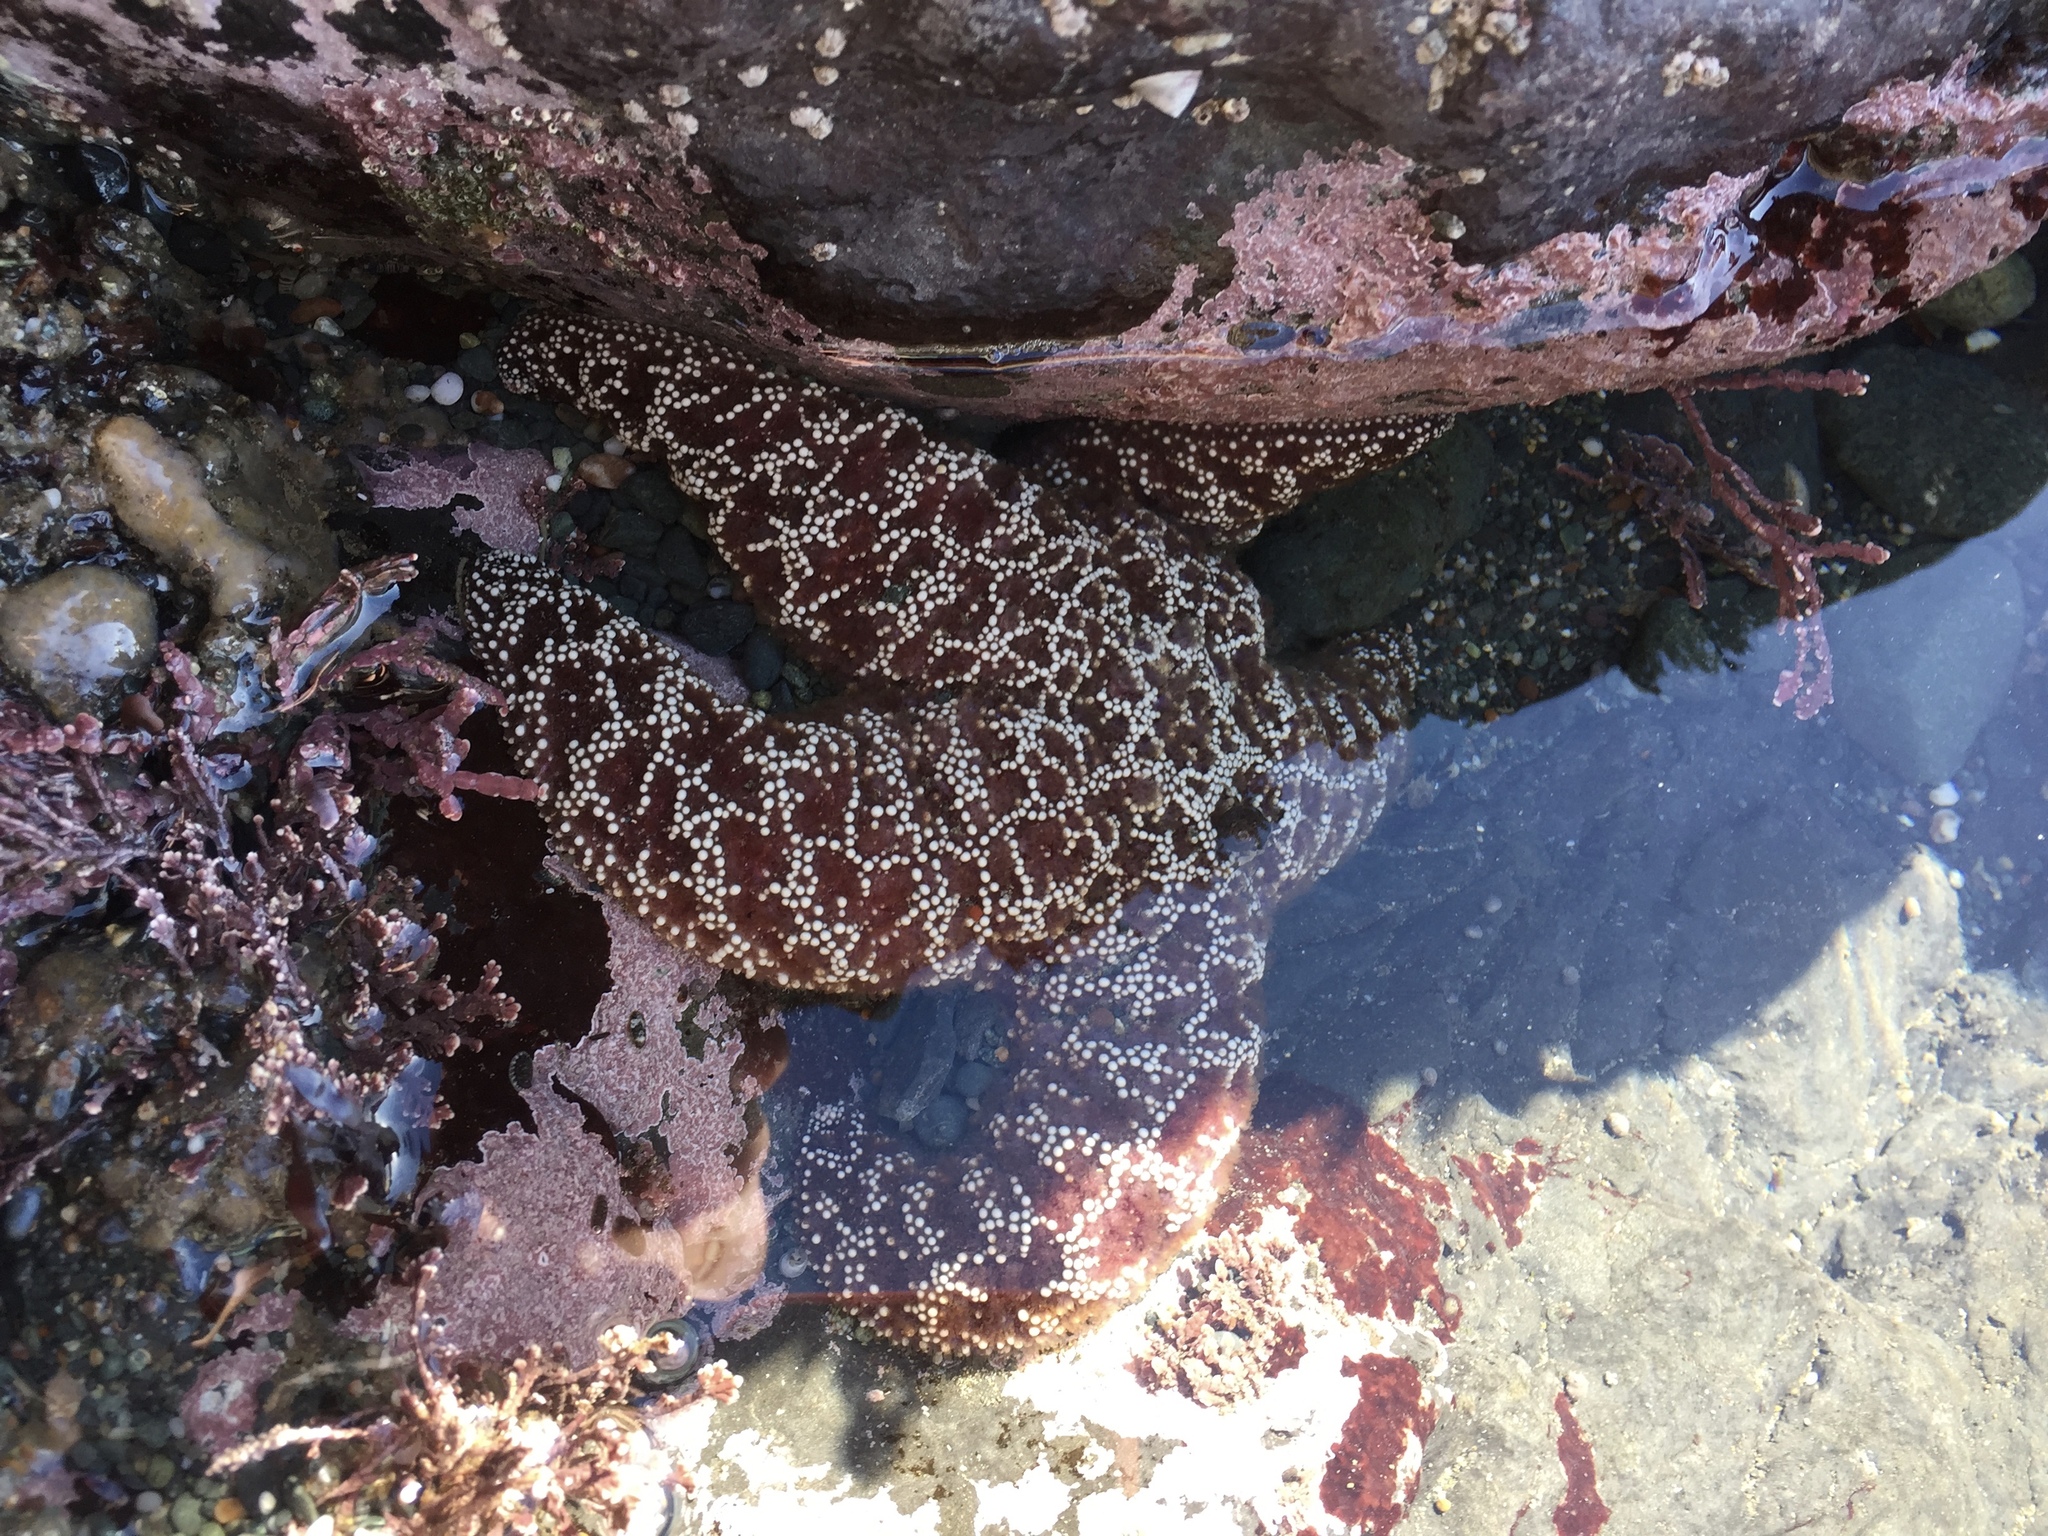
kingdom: Animalia
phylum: Echinodermata
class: Asteroidea
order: Forcipulatida
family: Asteriidae
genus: Pisaster
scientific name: Pisaster ochraceus
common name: Ochre stars
